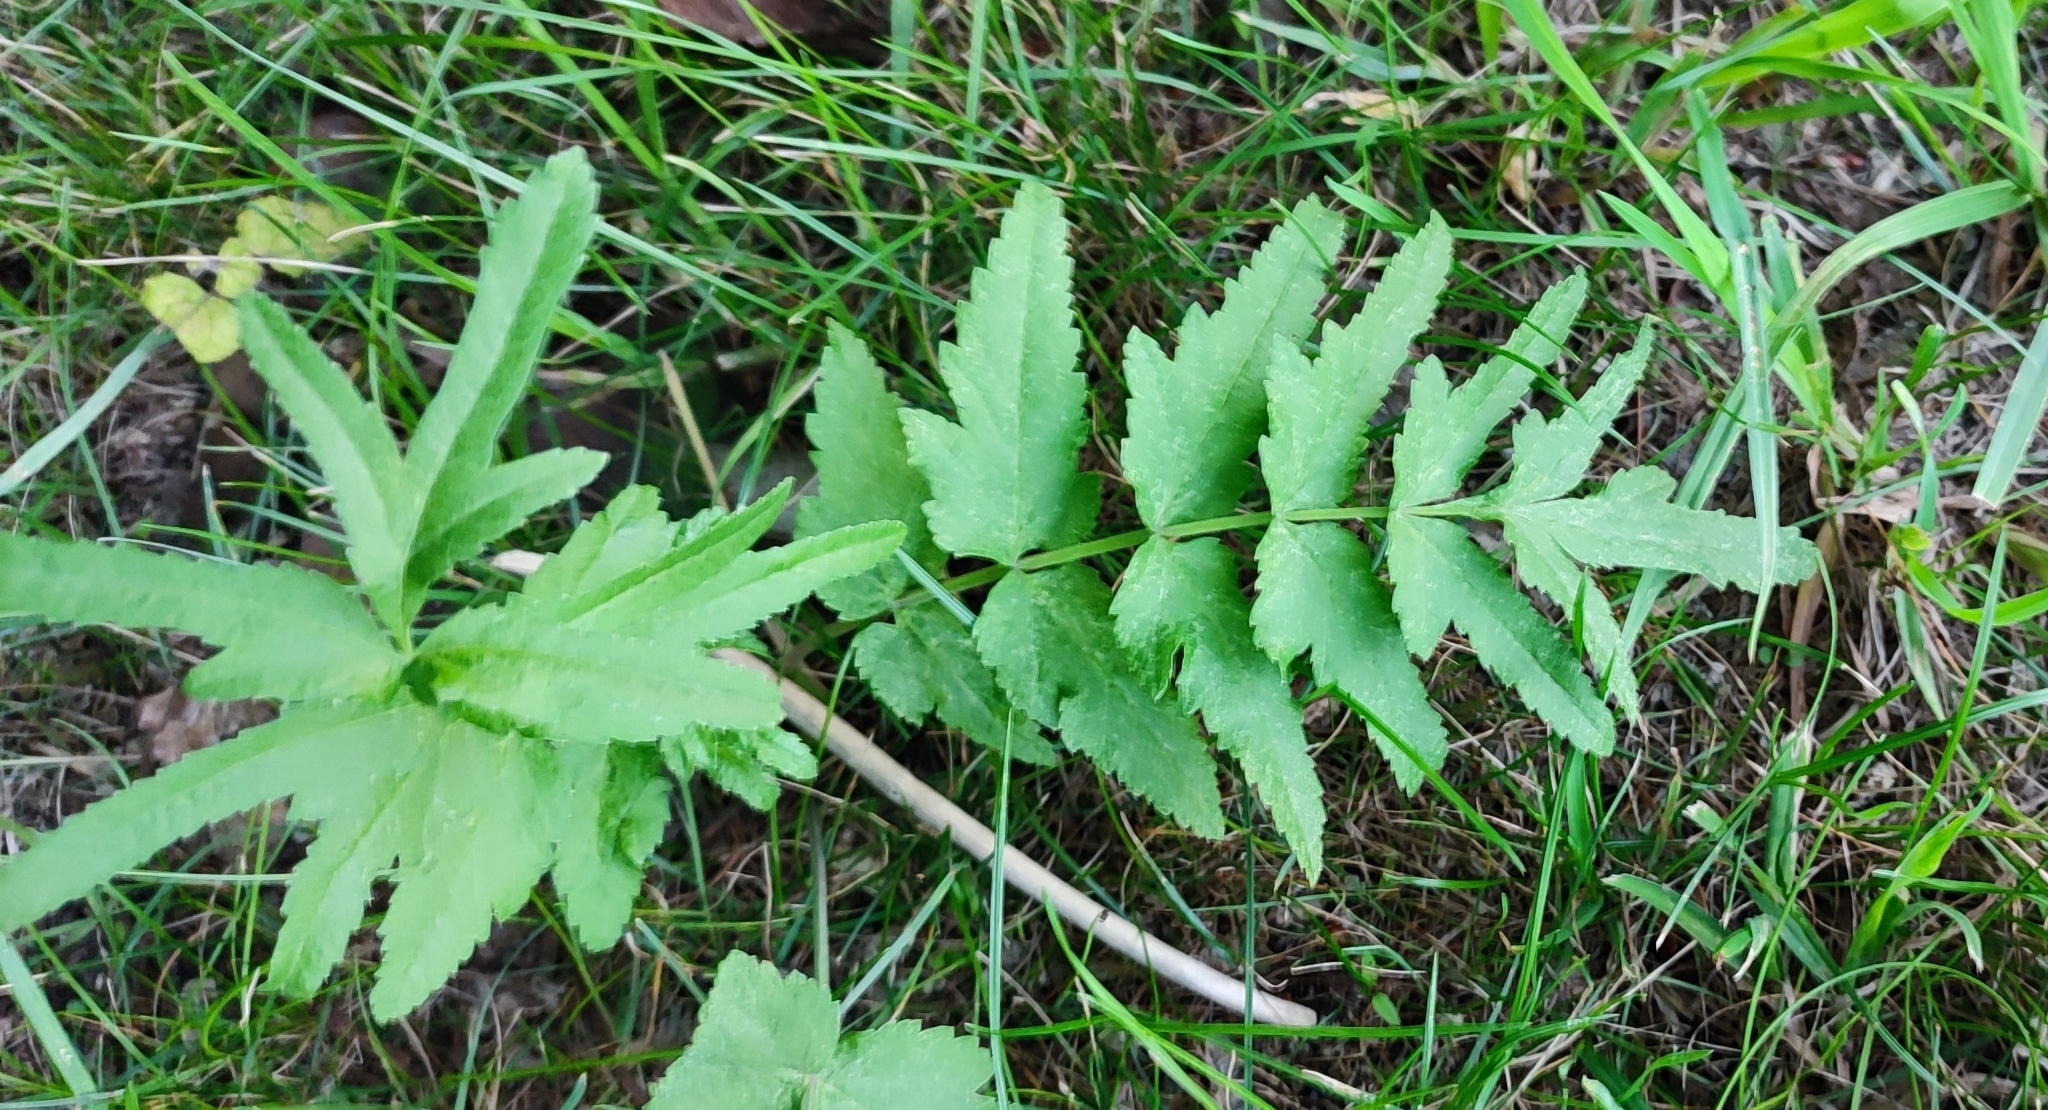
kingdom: Plantae
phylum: Tracheophyta
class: Magnoliopsida
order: Apiales
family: Apiaceae
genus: Pastinaca
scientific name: Pastinaca sativa
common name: Wild parsnip
